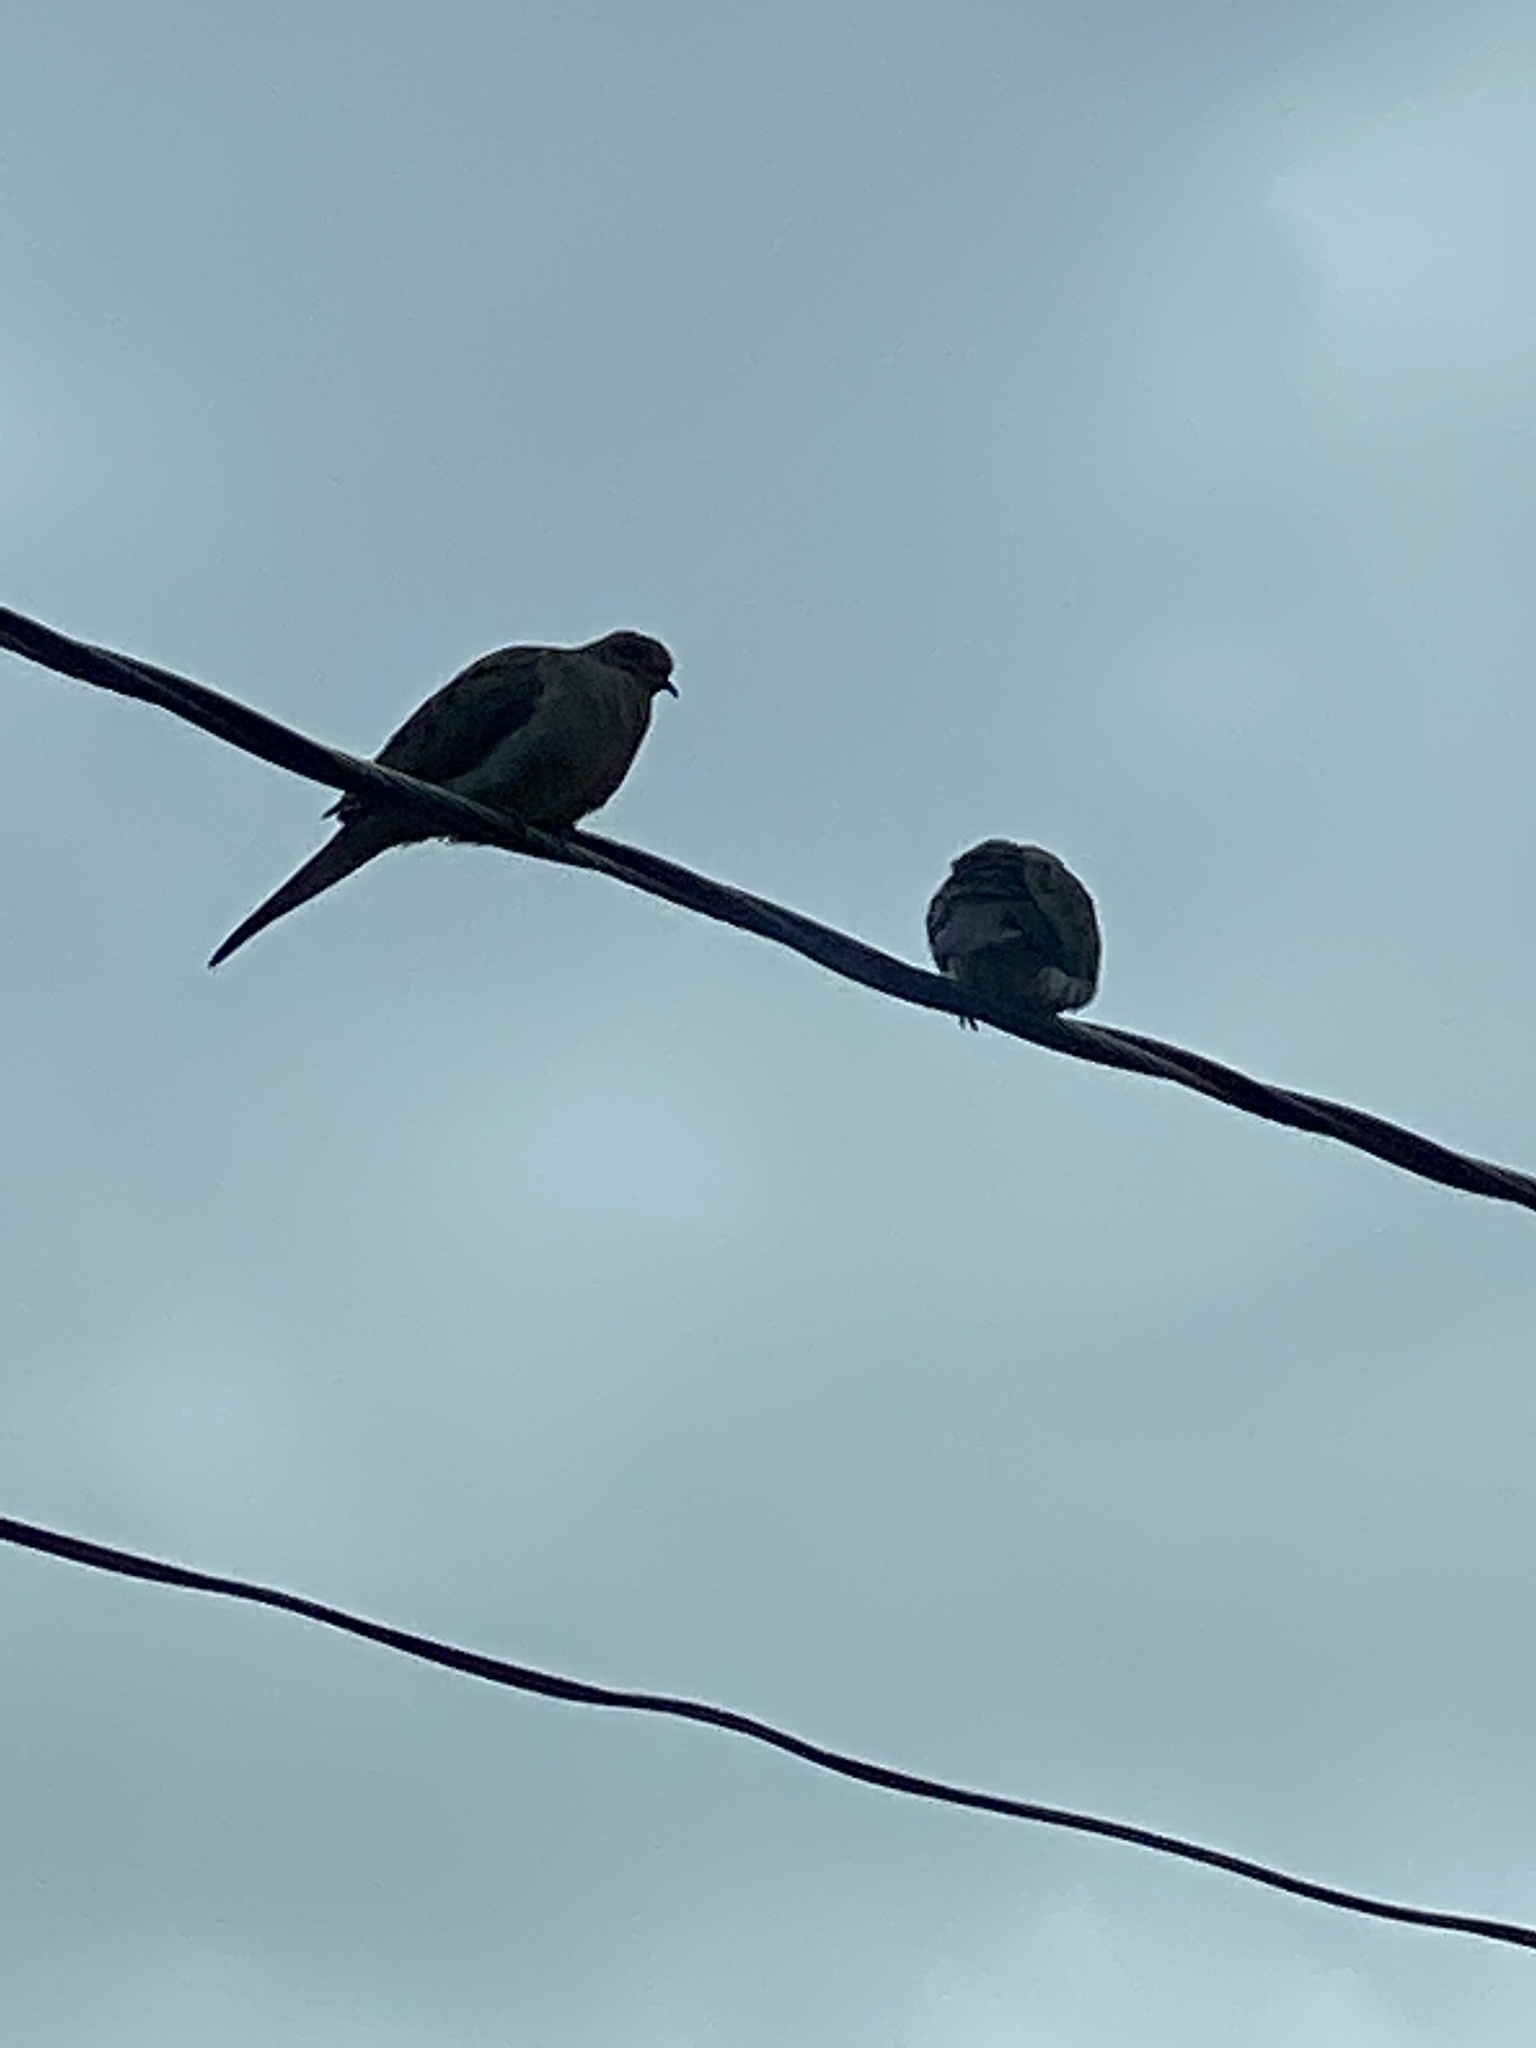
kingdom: Animalia
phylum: Chordata
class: Aves
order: Columbiformes
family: Columbidae
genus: Zenaida
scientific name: Zenaida macroura
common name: Mourning dove
